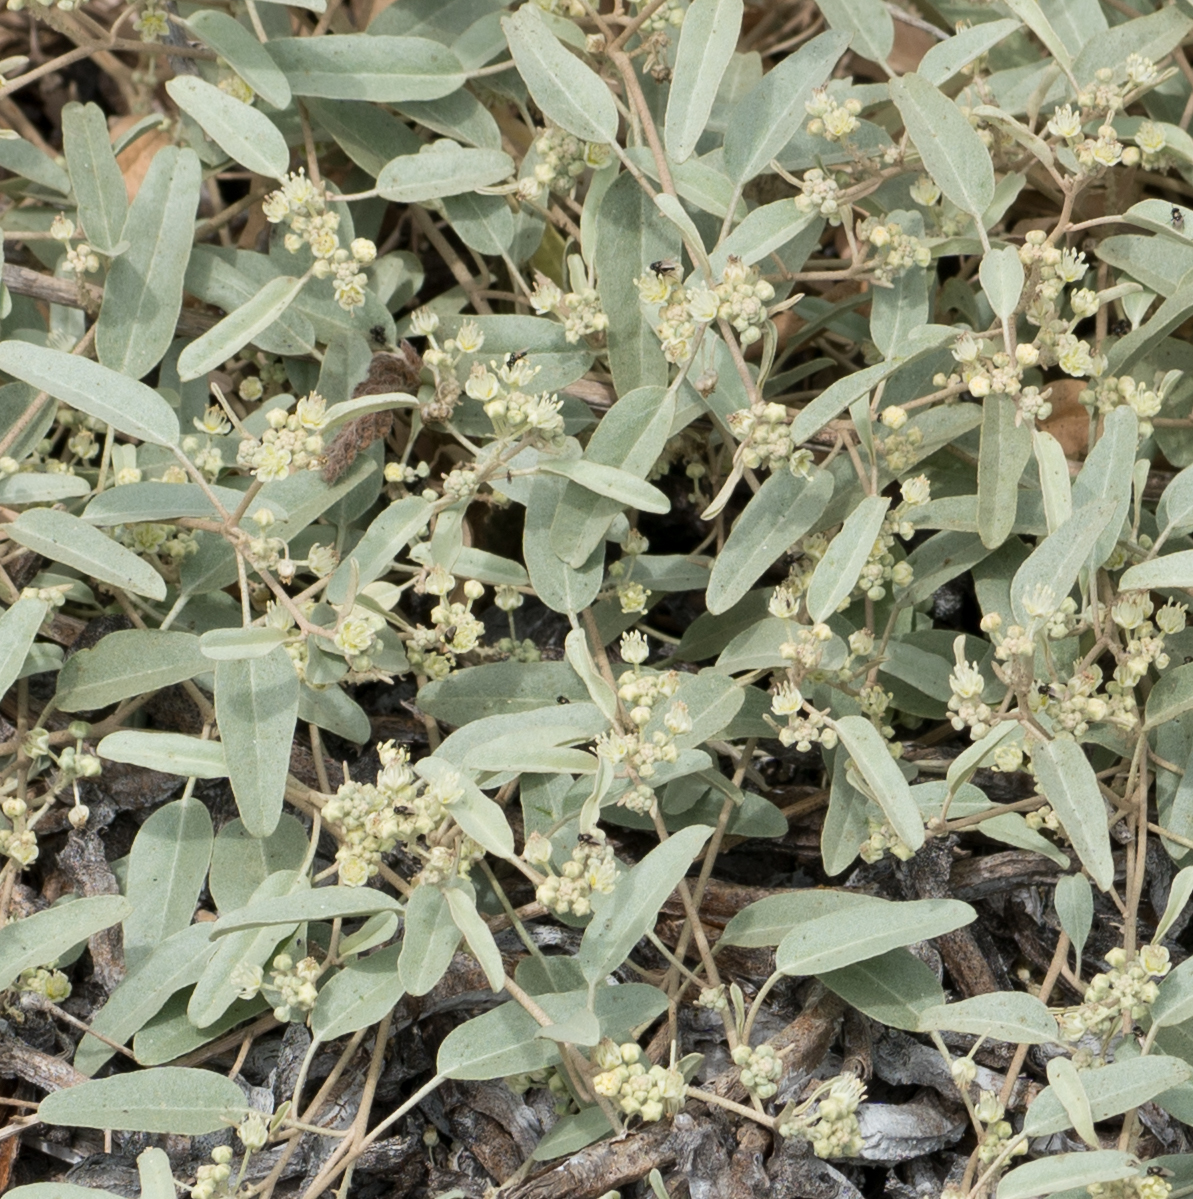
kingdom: Plantae
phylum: Tracheophyta
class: Magnoliopsida
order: Malpighiales
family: Euphorbiaceae
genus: Croton
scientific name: Croton californicus
